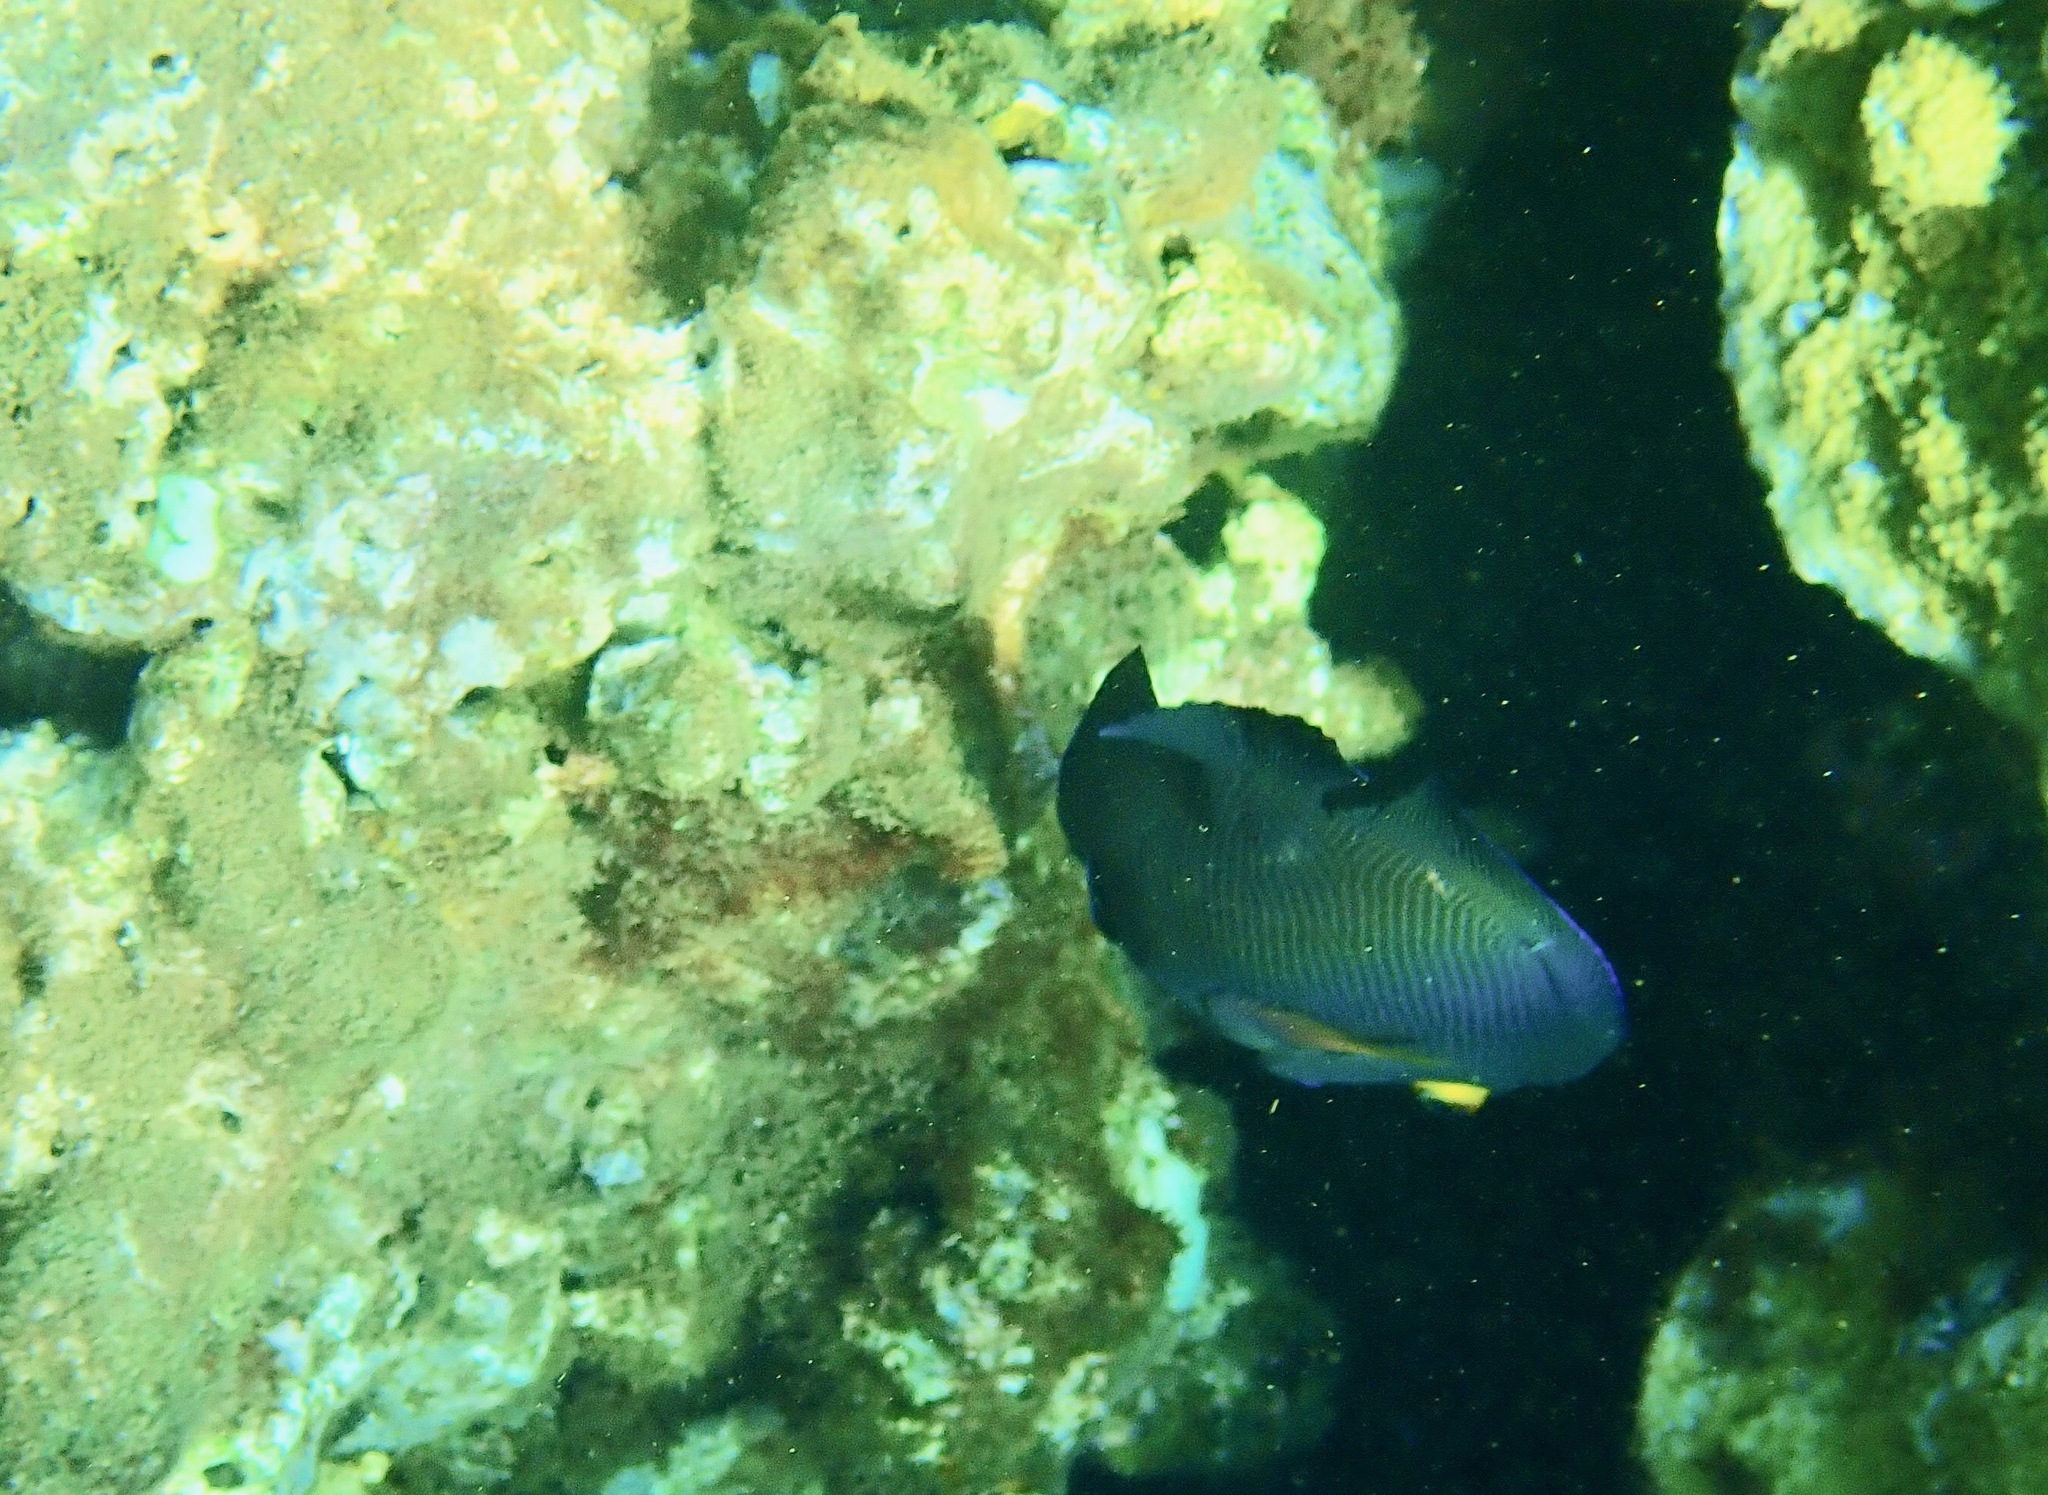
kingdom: Animalia
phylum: Chordata
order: Perciformes
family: Acanthuridae
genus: Ctenochaetus
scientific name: Ctenochaetus strigosus
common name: Bristletoothed surgeonfish
